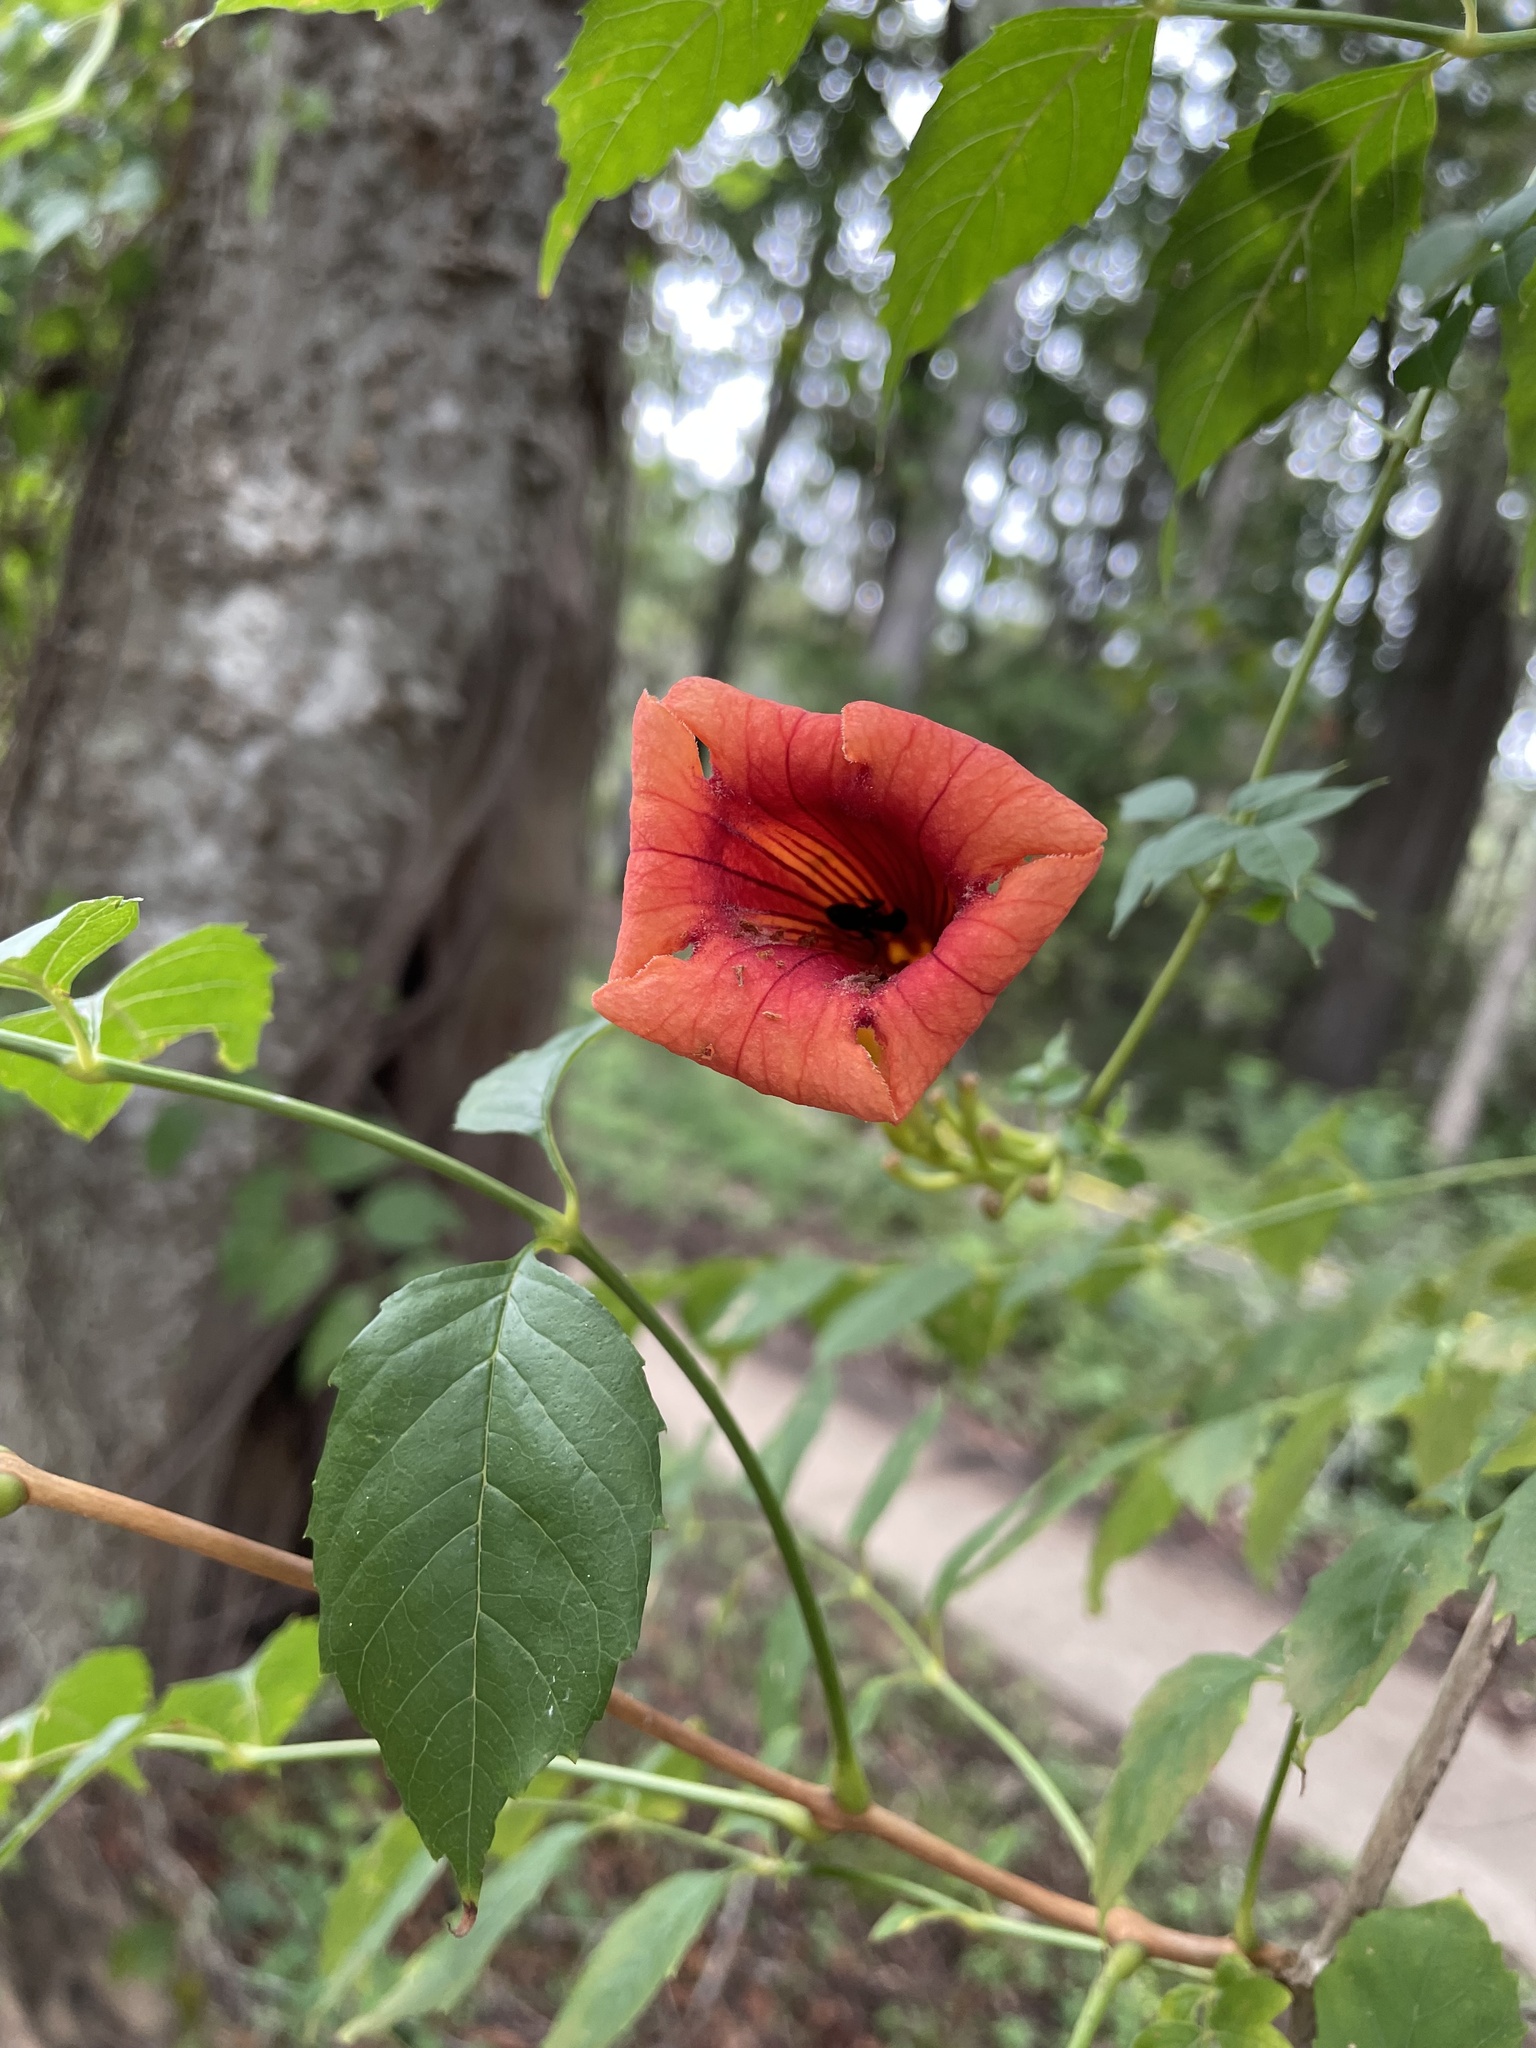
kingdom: Plantae
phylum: Tracheophyta
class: Magnoliopsida
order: Lamiales
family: Bignoniaceae
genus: Campsis
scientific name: Campsis radicans
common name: Trumpet-creeper
